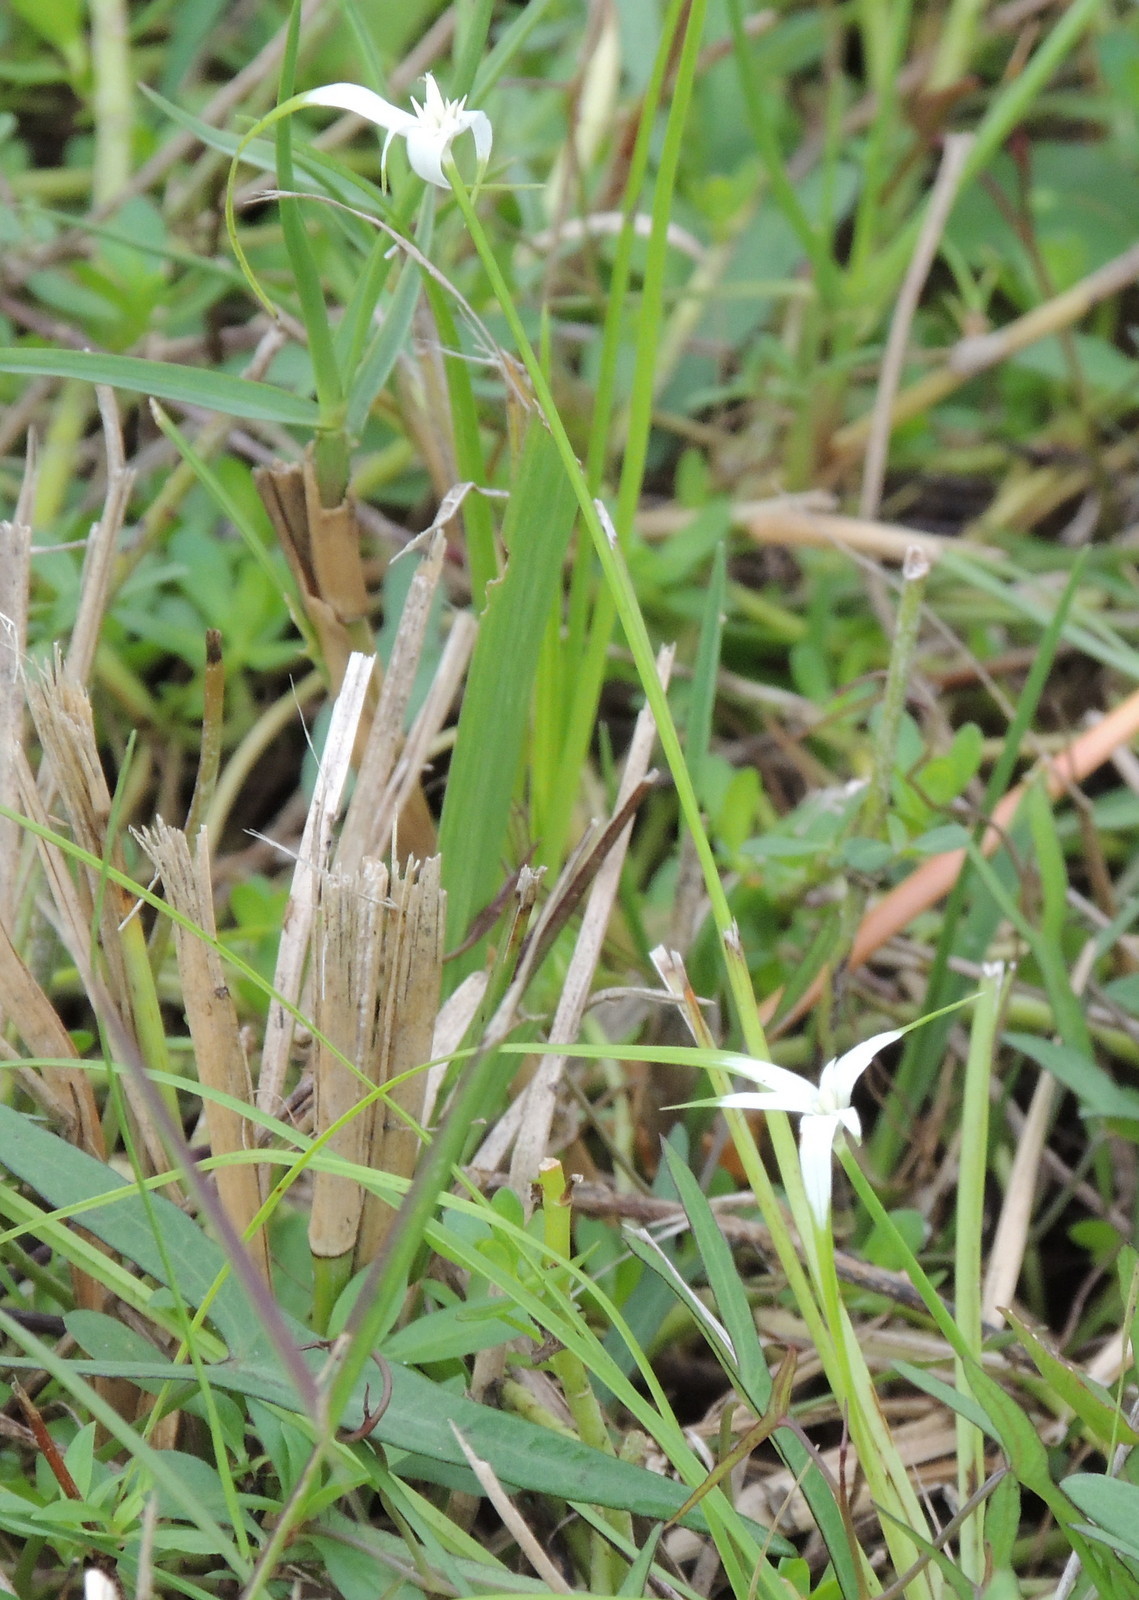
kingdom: Plantae
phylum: Tracheophyta
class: Liliopsida
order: Poales
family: Cyperaceae
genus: Rhynchospora
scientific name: Rhynchospora colorata
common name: Star sedge
